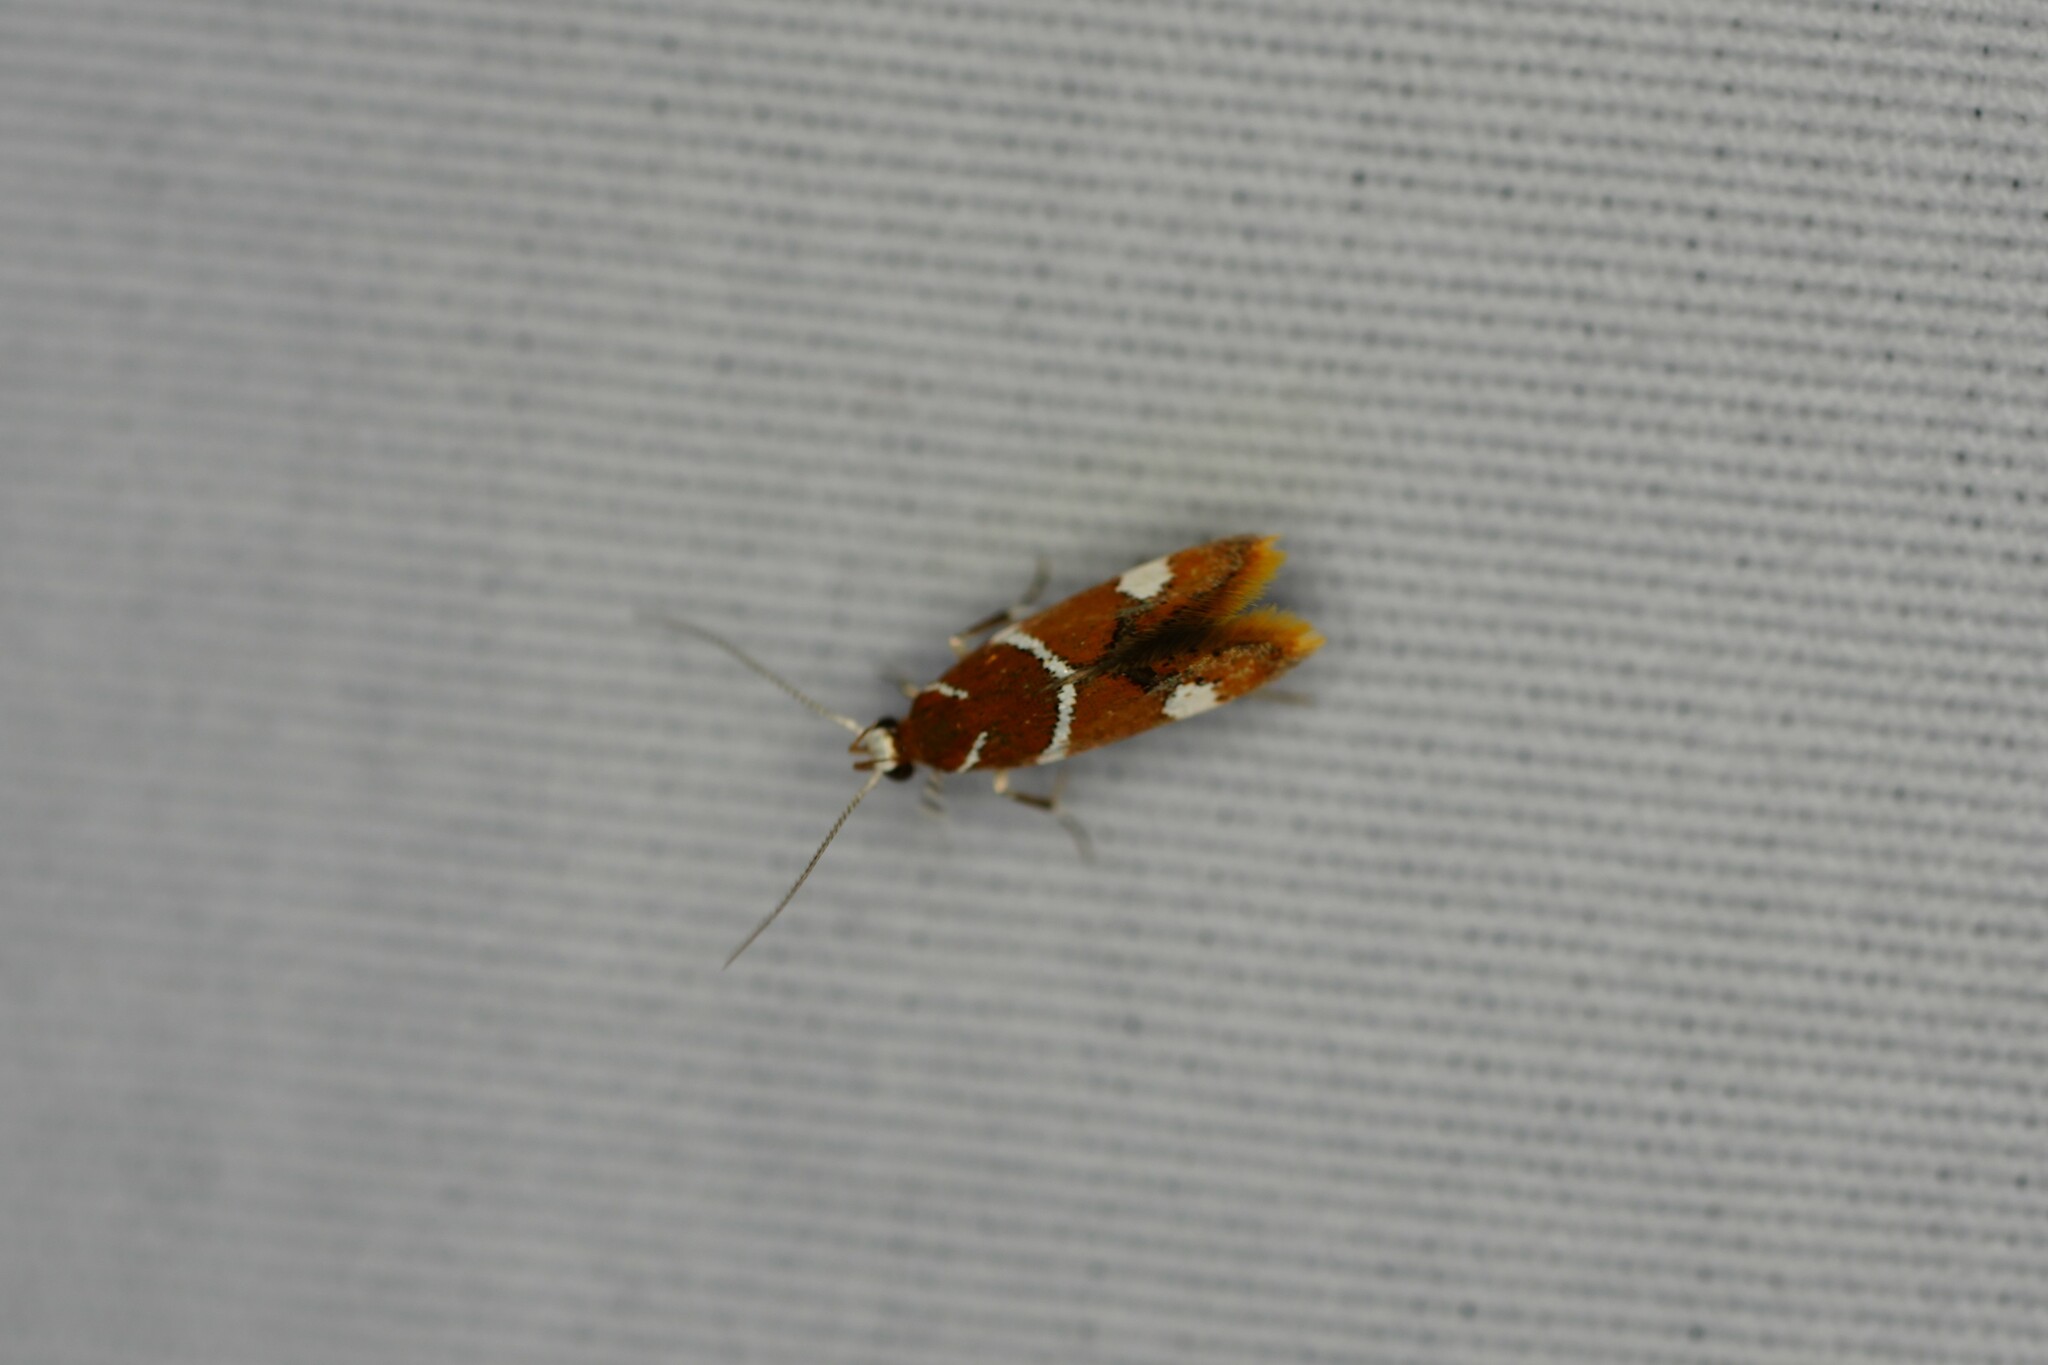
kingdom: Animalia
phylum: Arthropoda
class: Insecta
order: Lepidoptera
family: Oecophoridae
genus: Promalactis
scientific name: Promalactis suzukiella
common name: Moth
